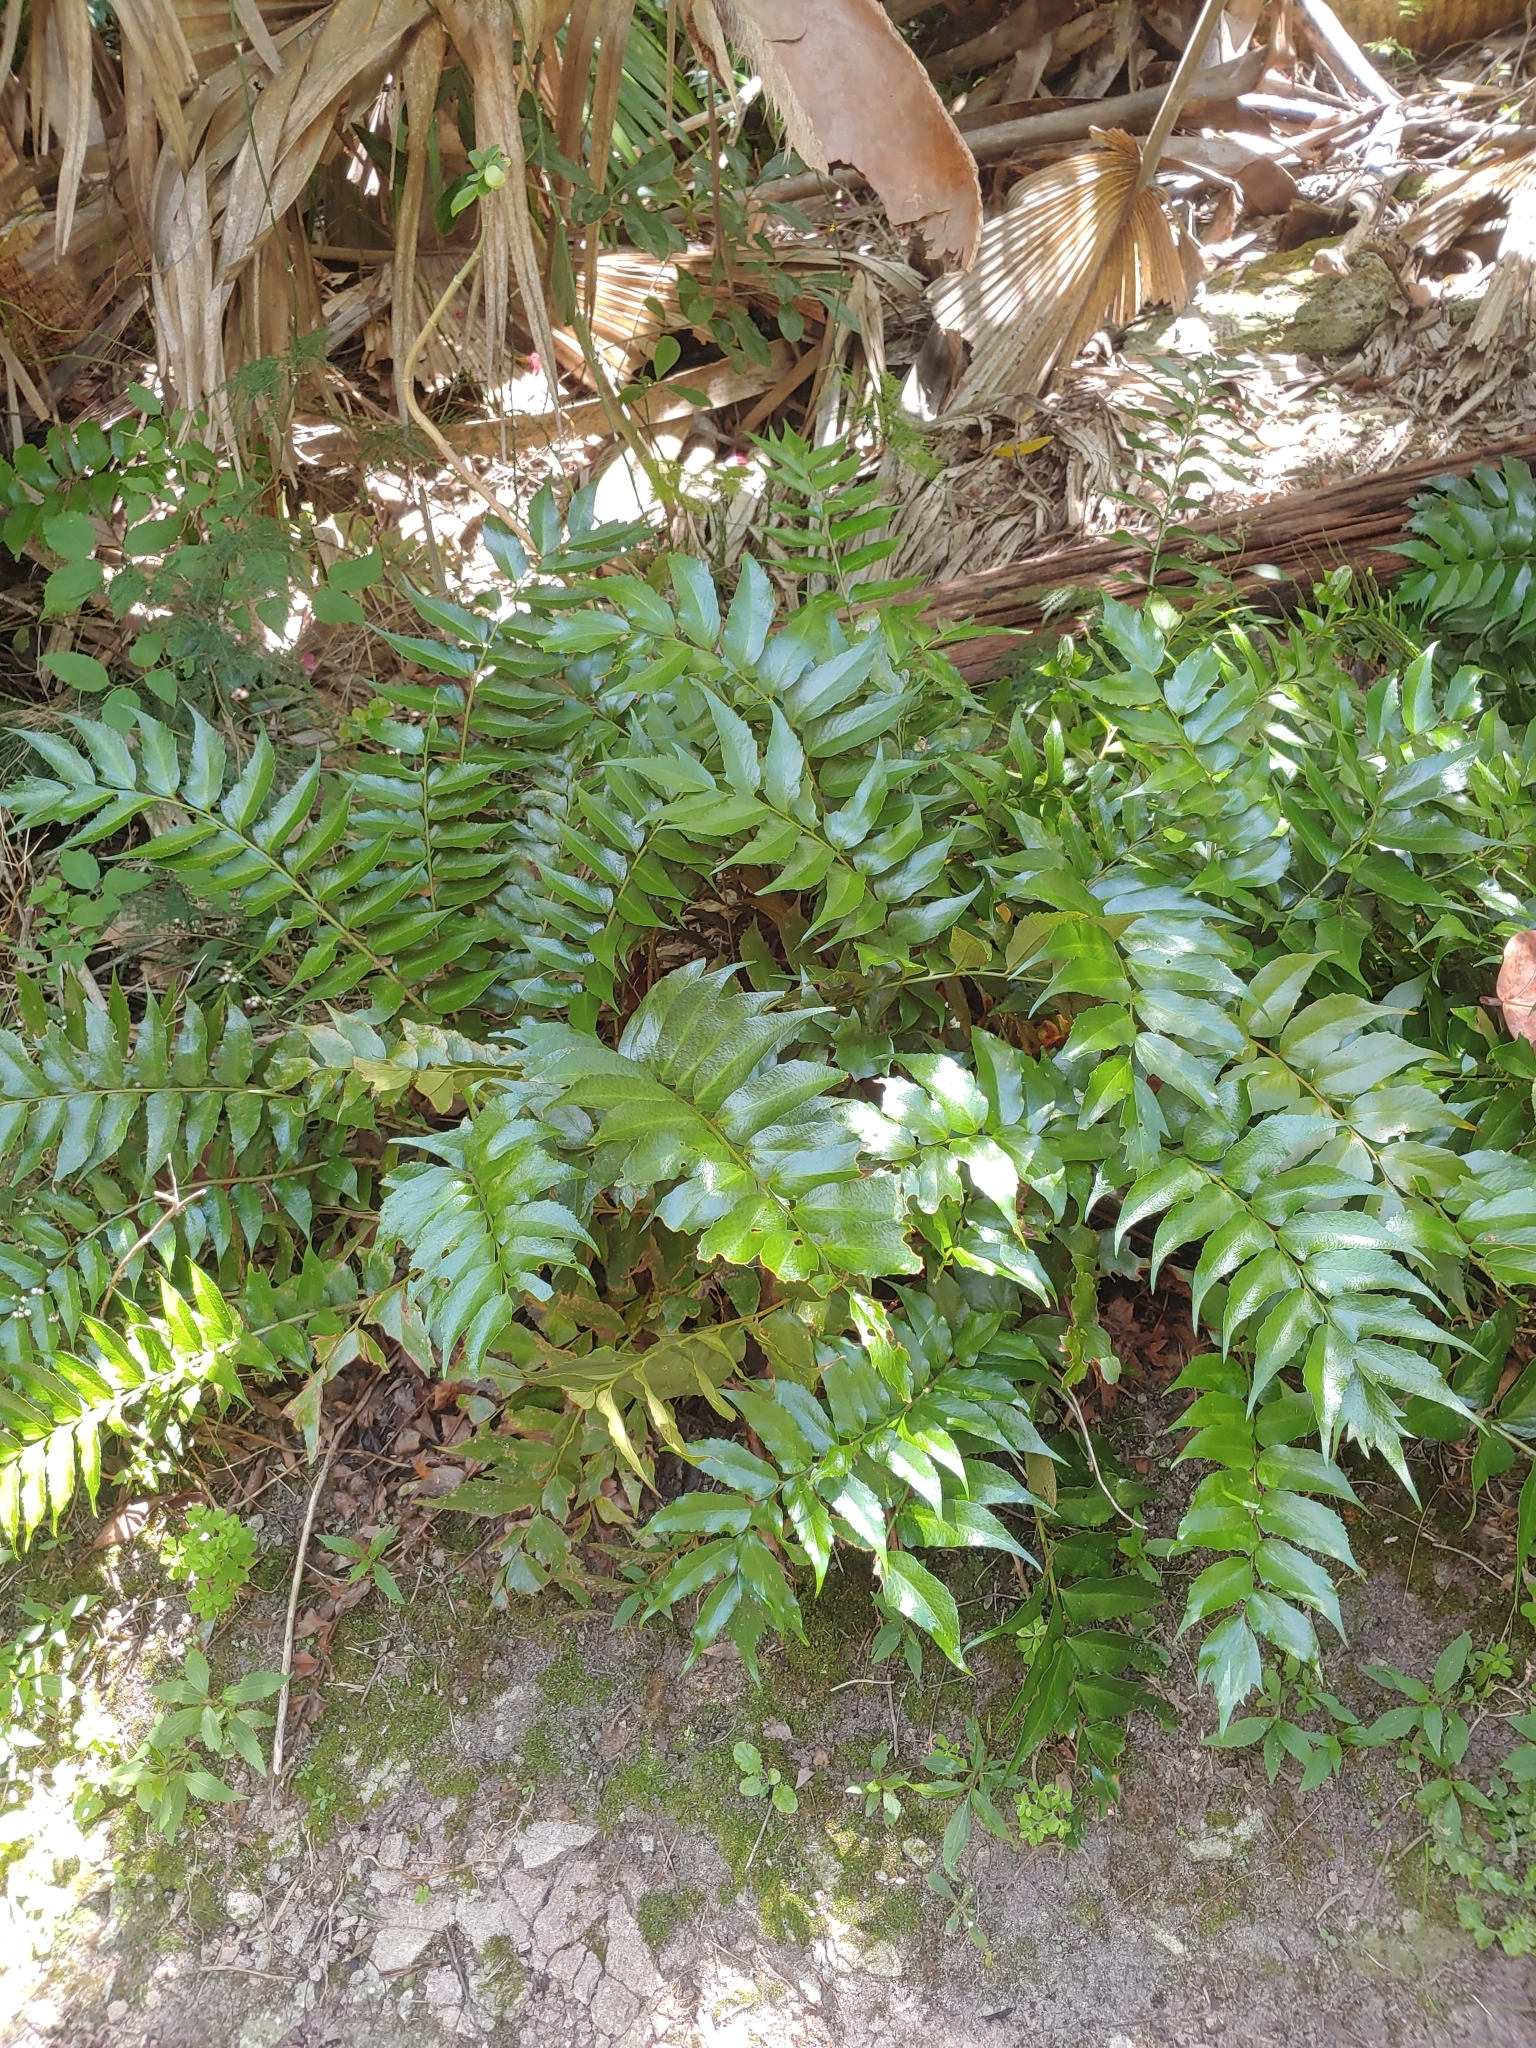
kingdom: Plantae
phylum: Tracheophyta
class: Polypodiopsida
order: Polypodiales
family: Dryopteridaceae
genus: Cyrtomium
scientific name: Cyrtomium falcatum
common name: House holly-fern
